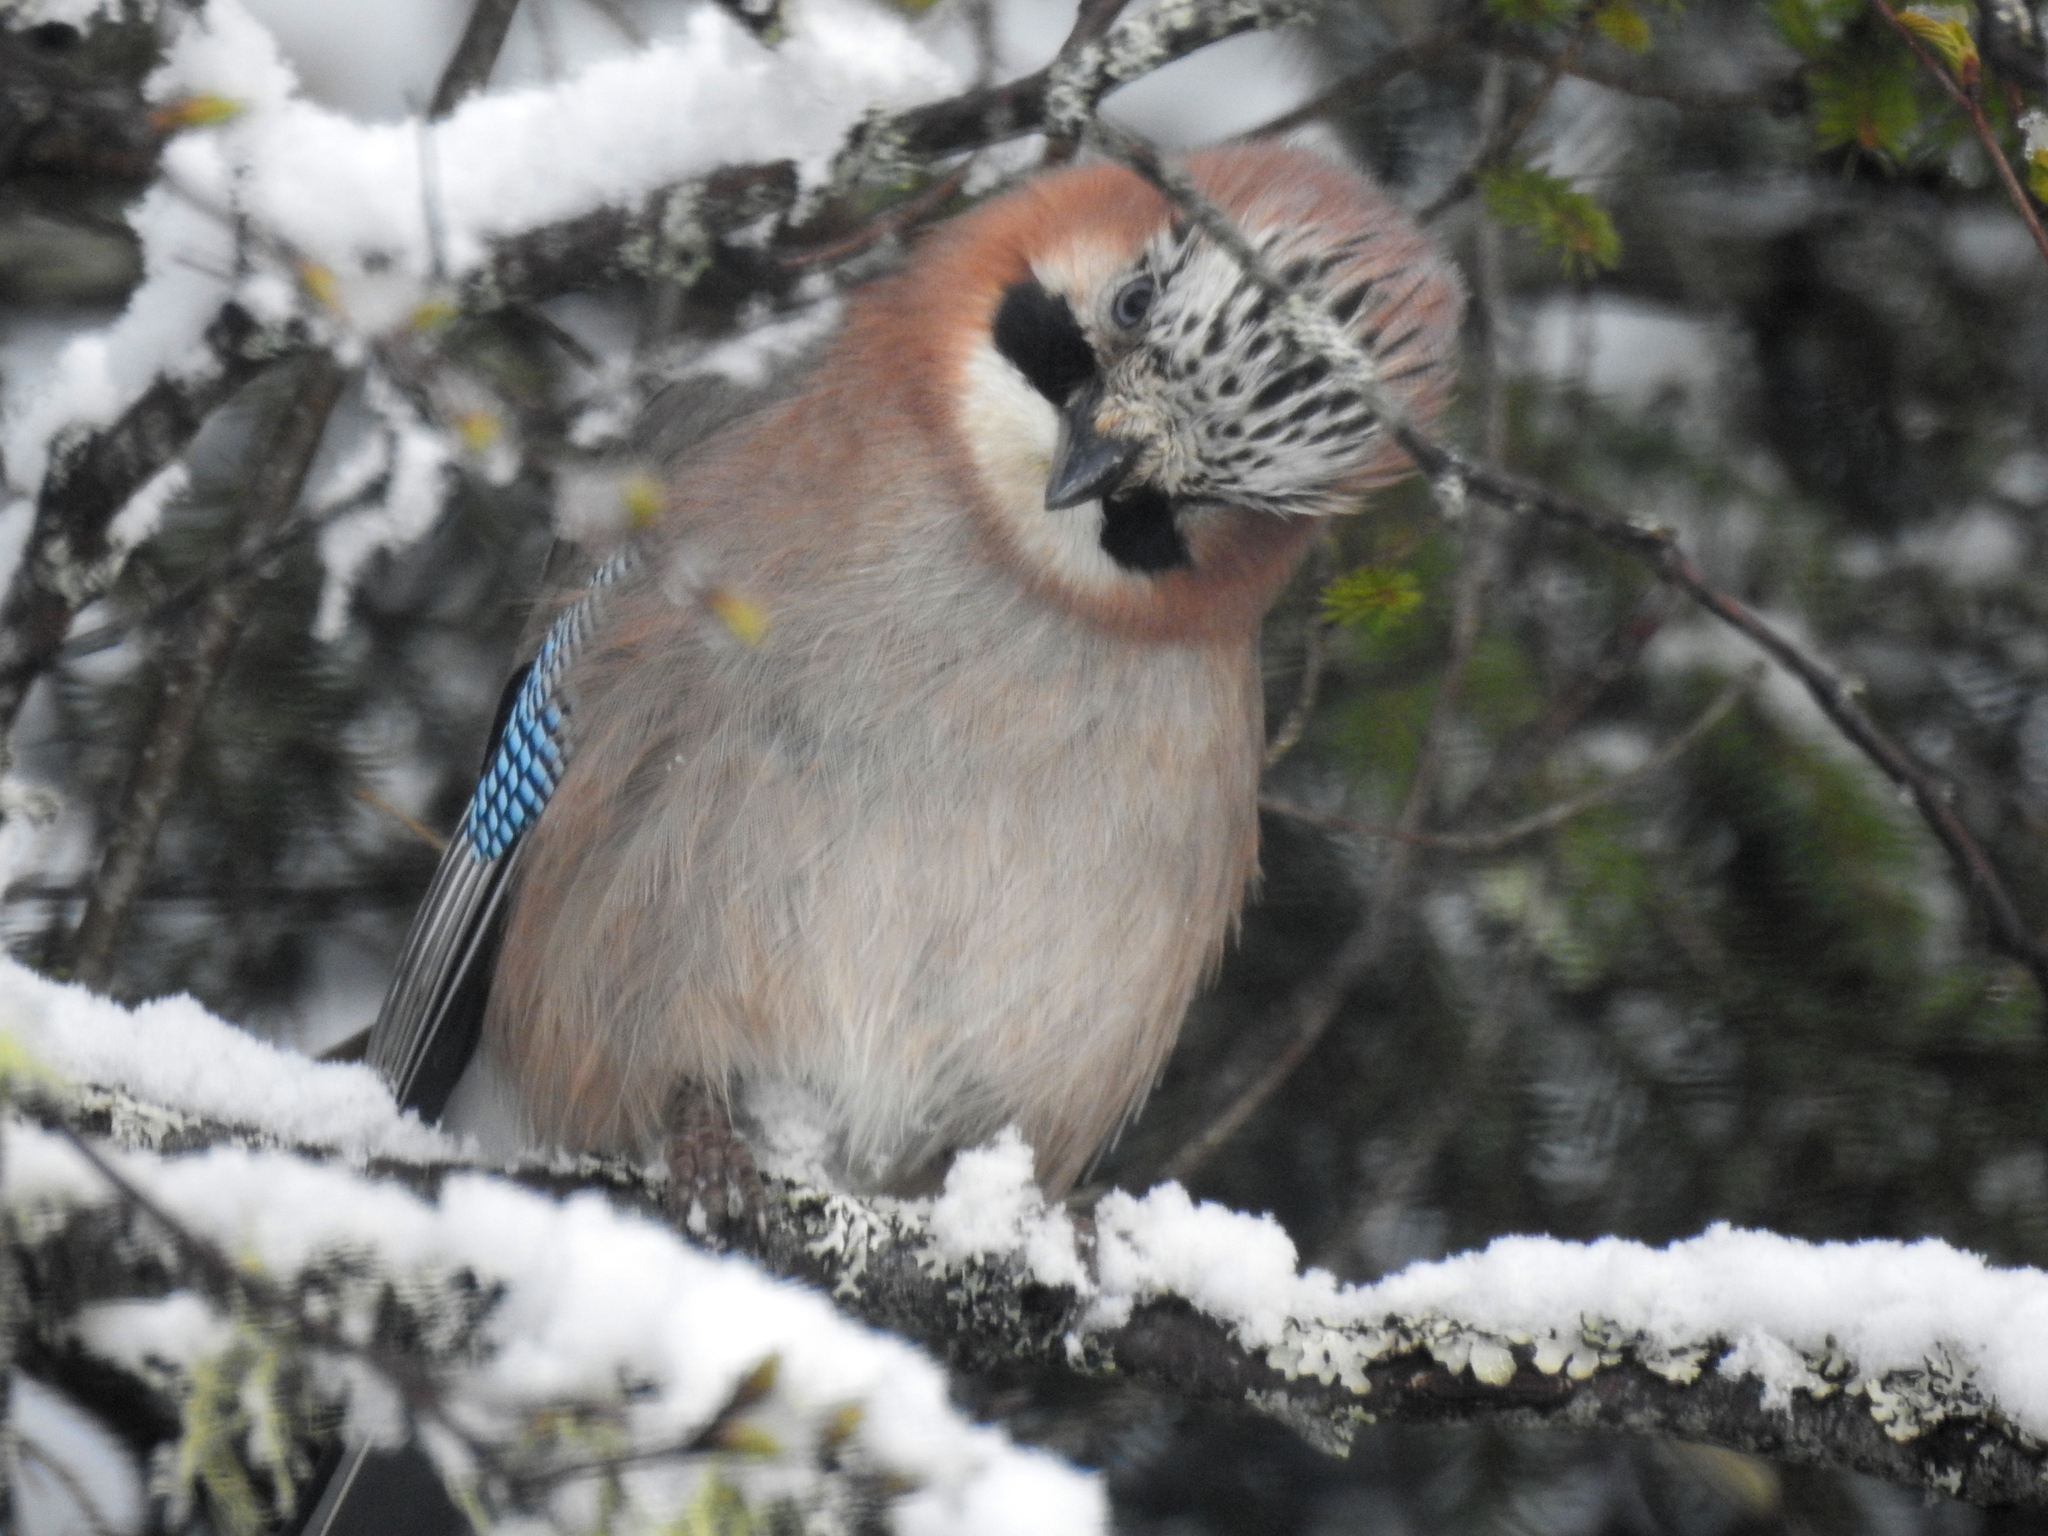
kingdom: Animalia
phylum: Chordata
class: Aves
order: Passeriformes
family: Corvidae
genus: Garrulus
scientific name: Garrulus glandarius
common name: Eurasian jay
